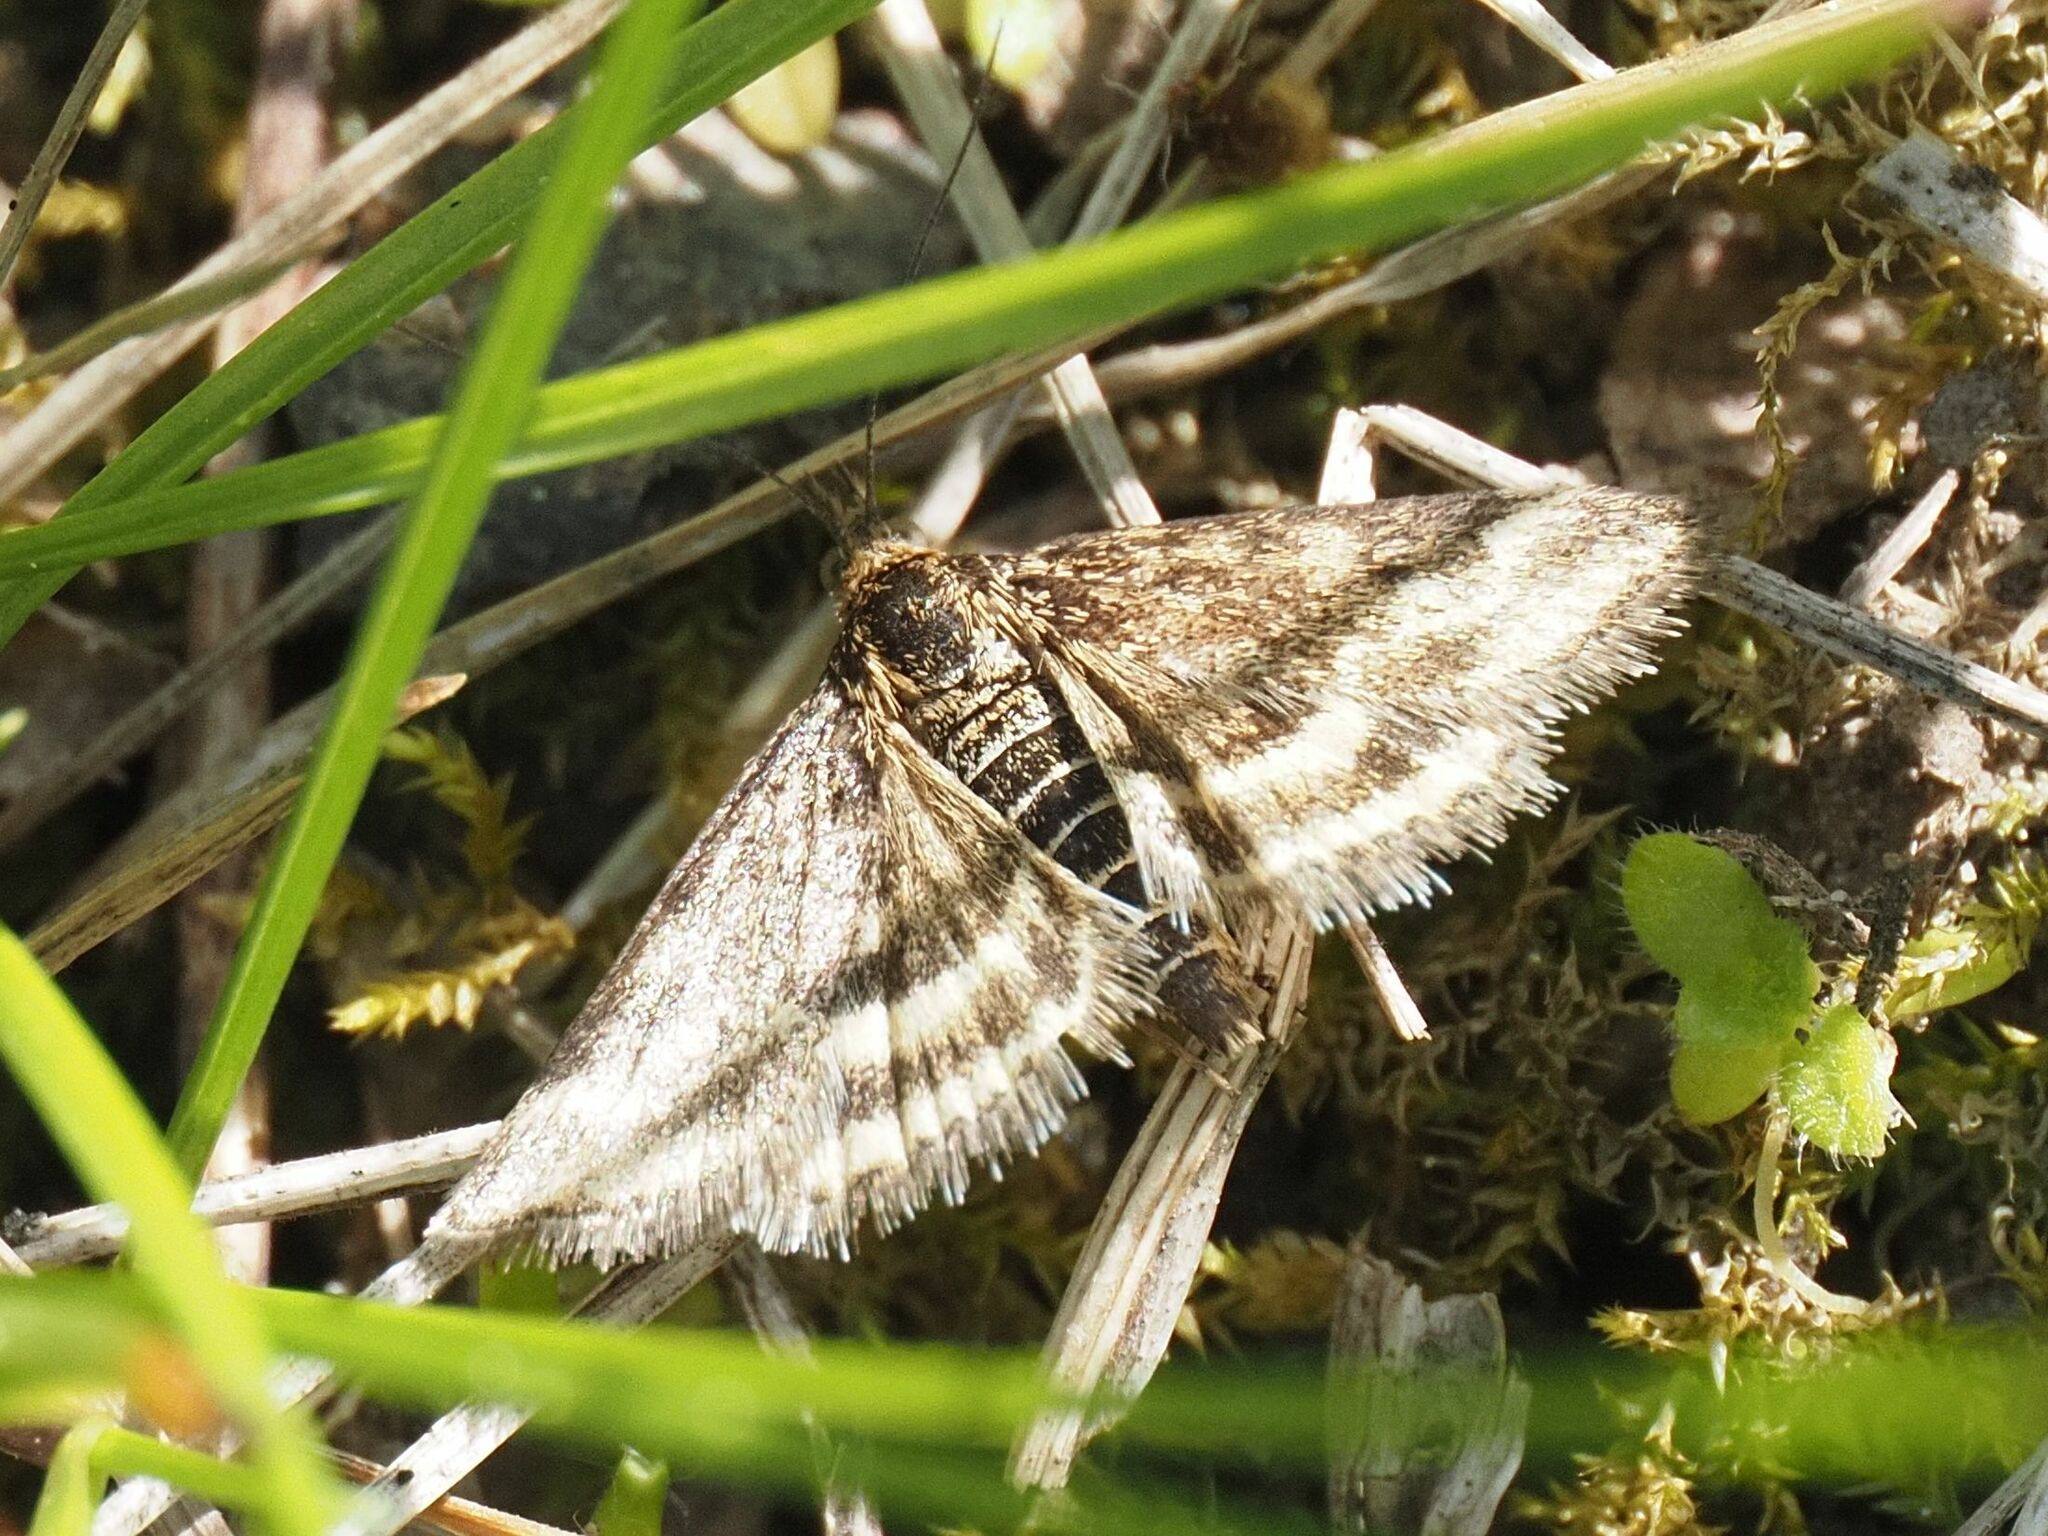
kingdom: Animalia
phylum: Arthropoda
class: Insecta
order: Lepidoptera
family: Crambidae
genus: Pyrausta
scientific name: Pyrausta despicata
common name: Straw-barred pearl
